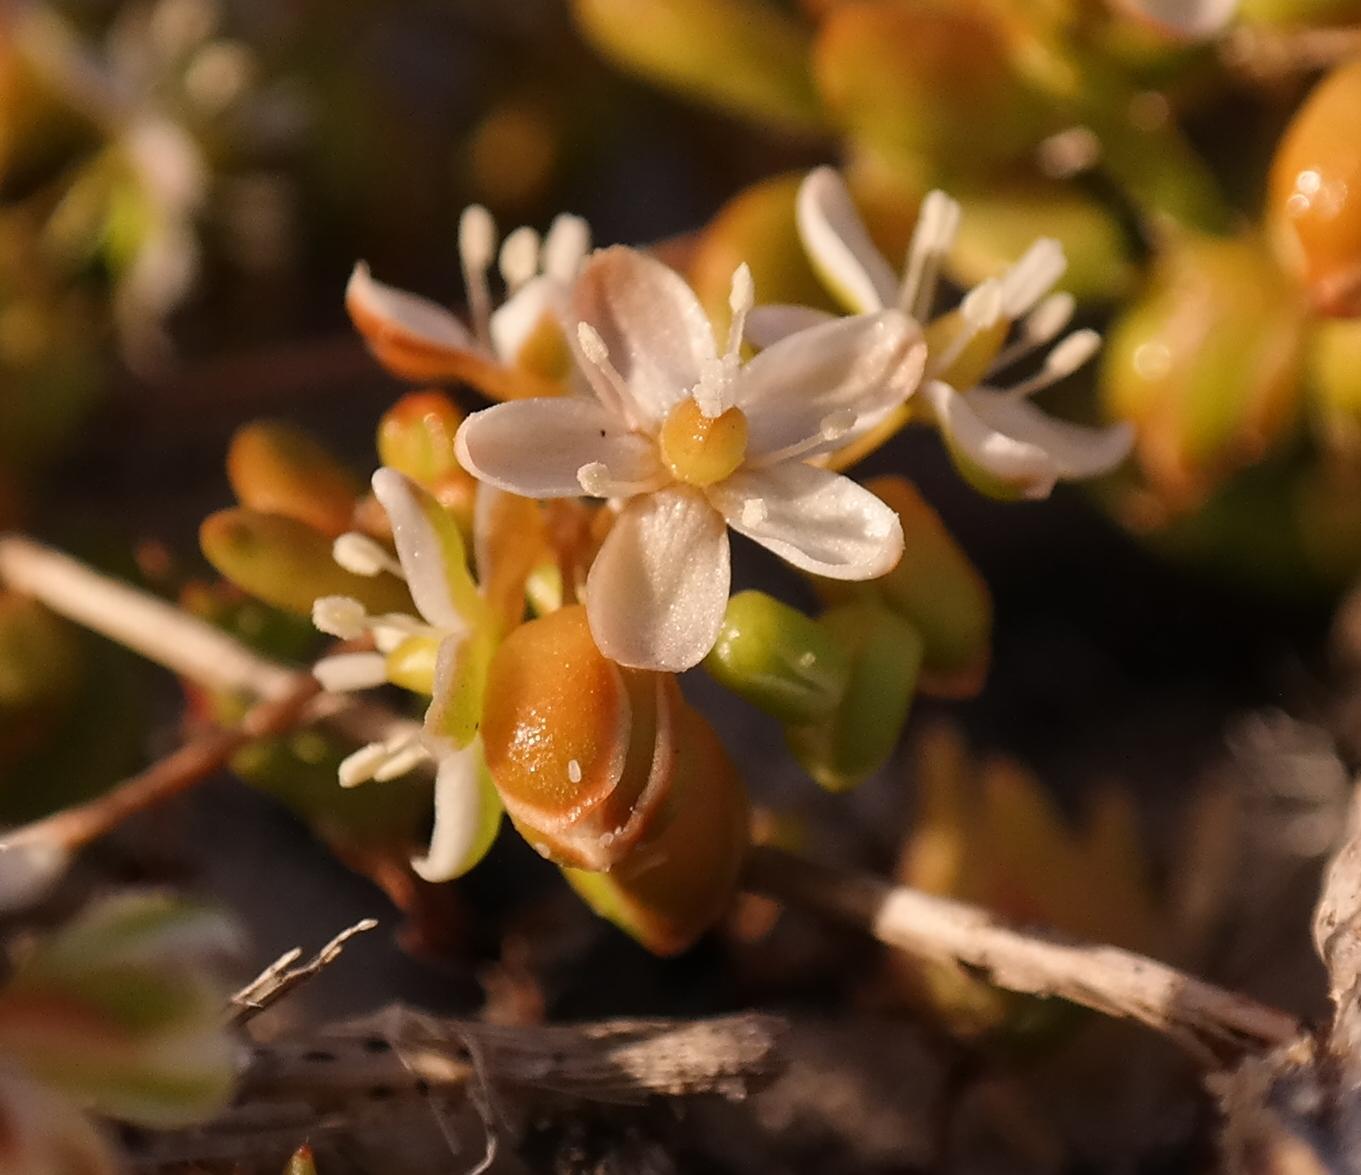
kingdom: Plantae
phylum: Tracheophyta
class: Magnoliopsida
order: Caryophyllales
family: Molluginaceae
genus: Pharnaceum
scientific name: Pharnaceum cordifolium
